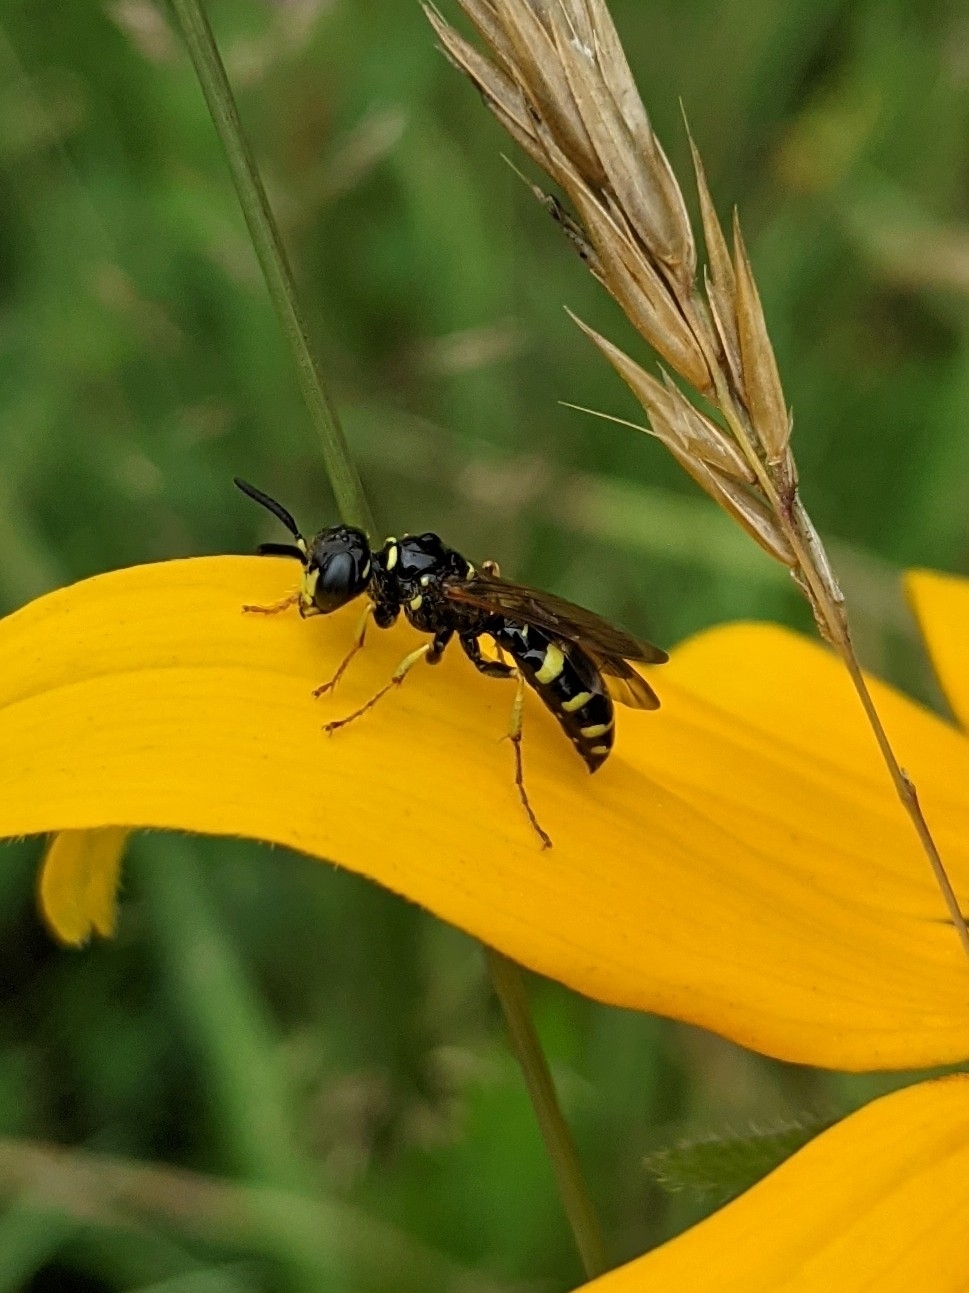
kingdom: Animalia
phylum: Arthropoda
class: Insecta
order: Hymenoptera
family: Crabronidae
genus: Philanthus
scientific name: Philanthus bilunatus
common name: Two moons beewolf
